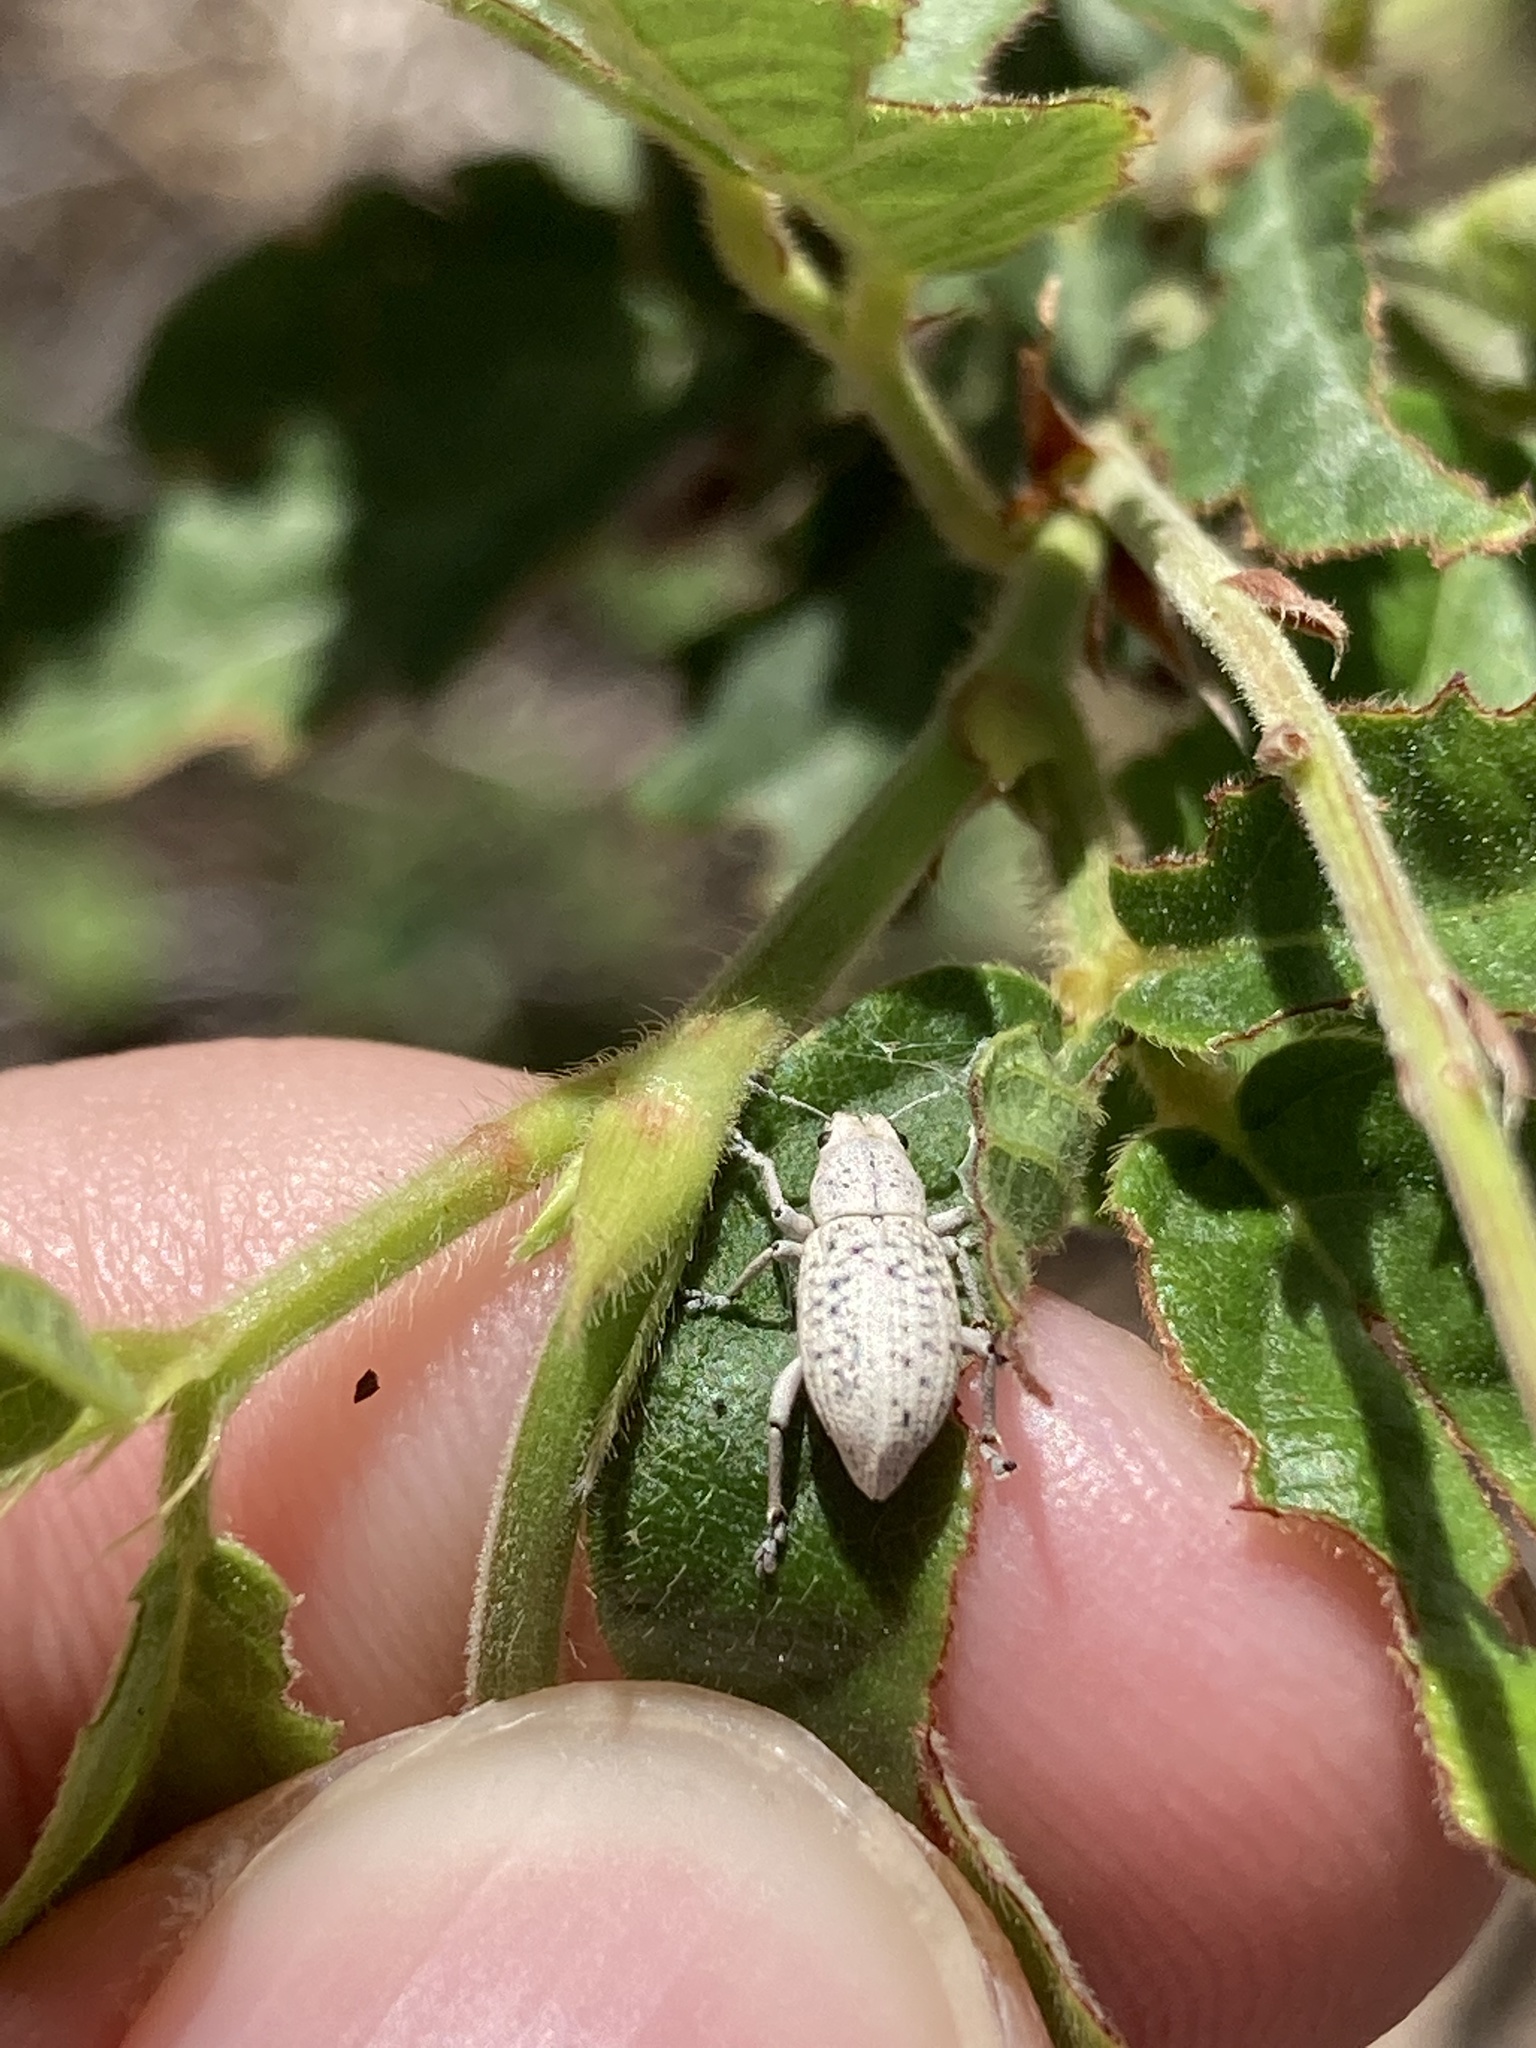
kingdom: Animalia
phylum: Arthropoda
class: Insecta
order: Coleoptera
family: Curculionidae
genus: Artipus
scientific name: Artipus floridanus
